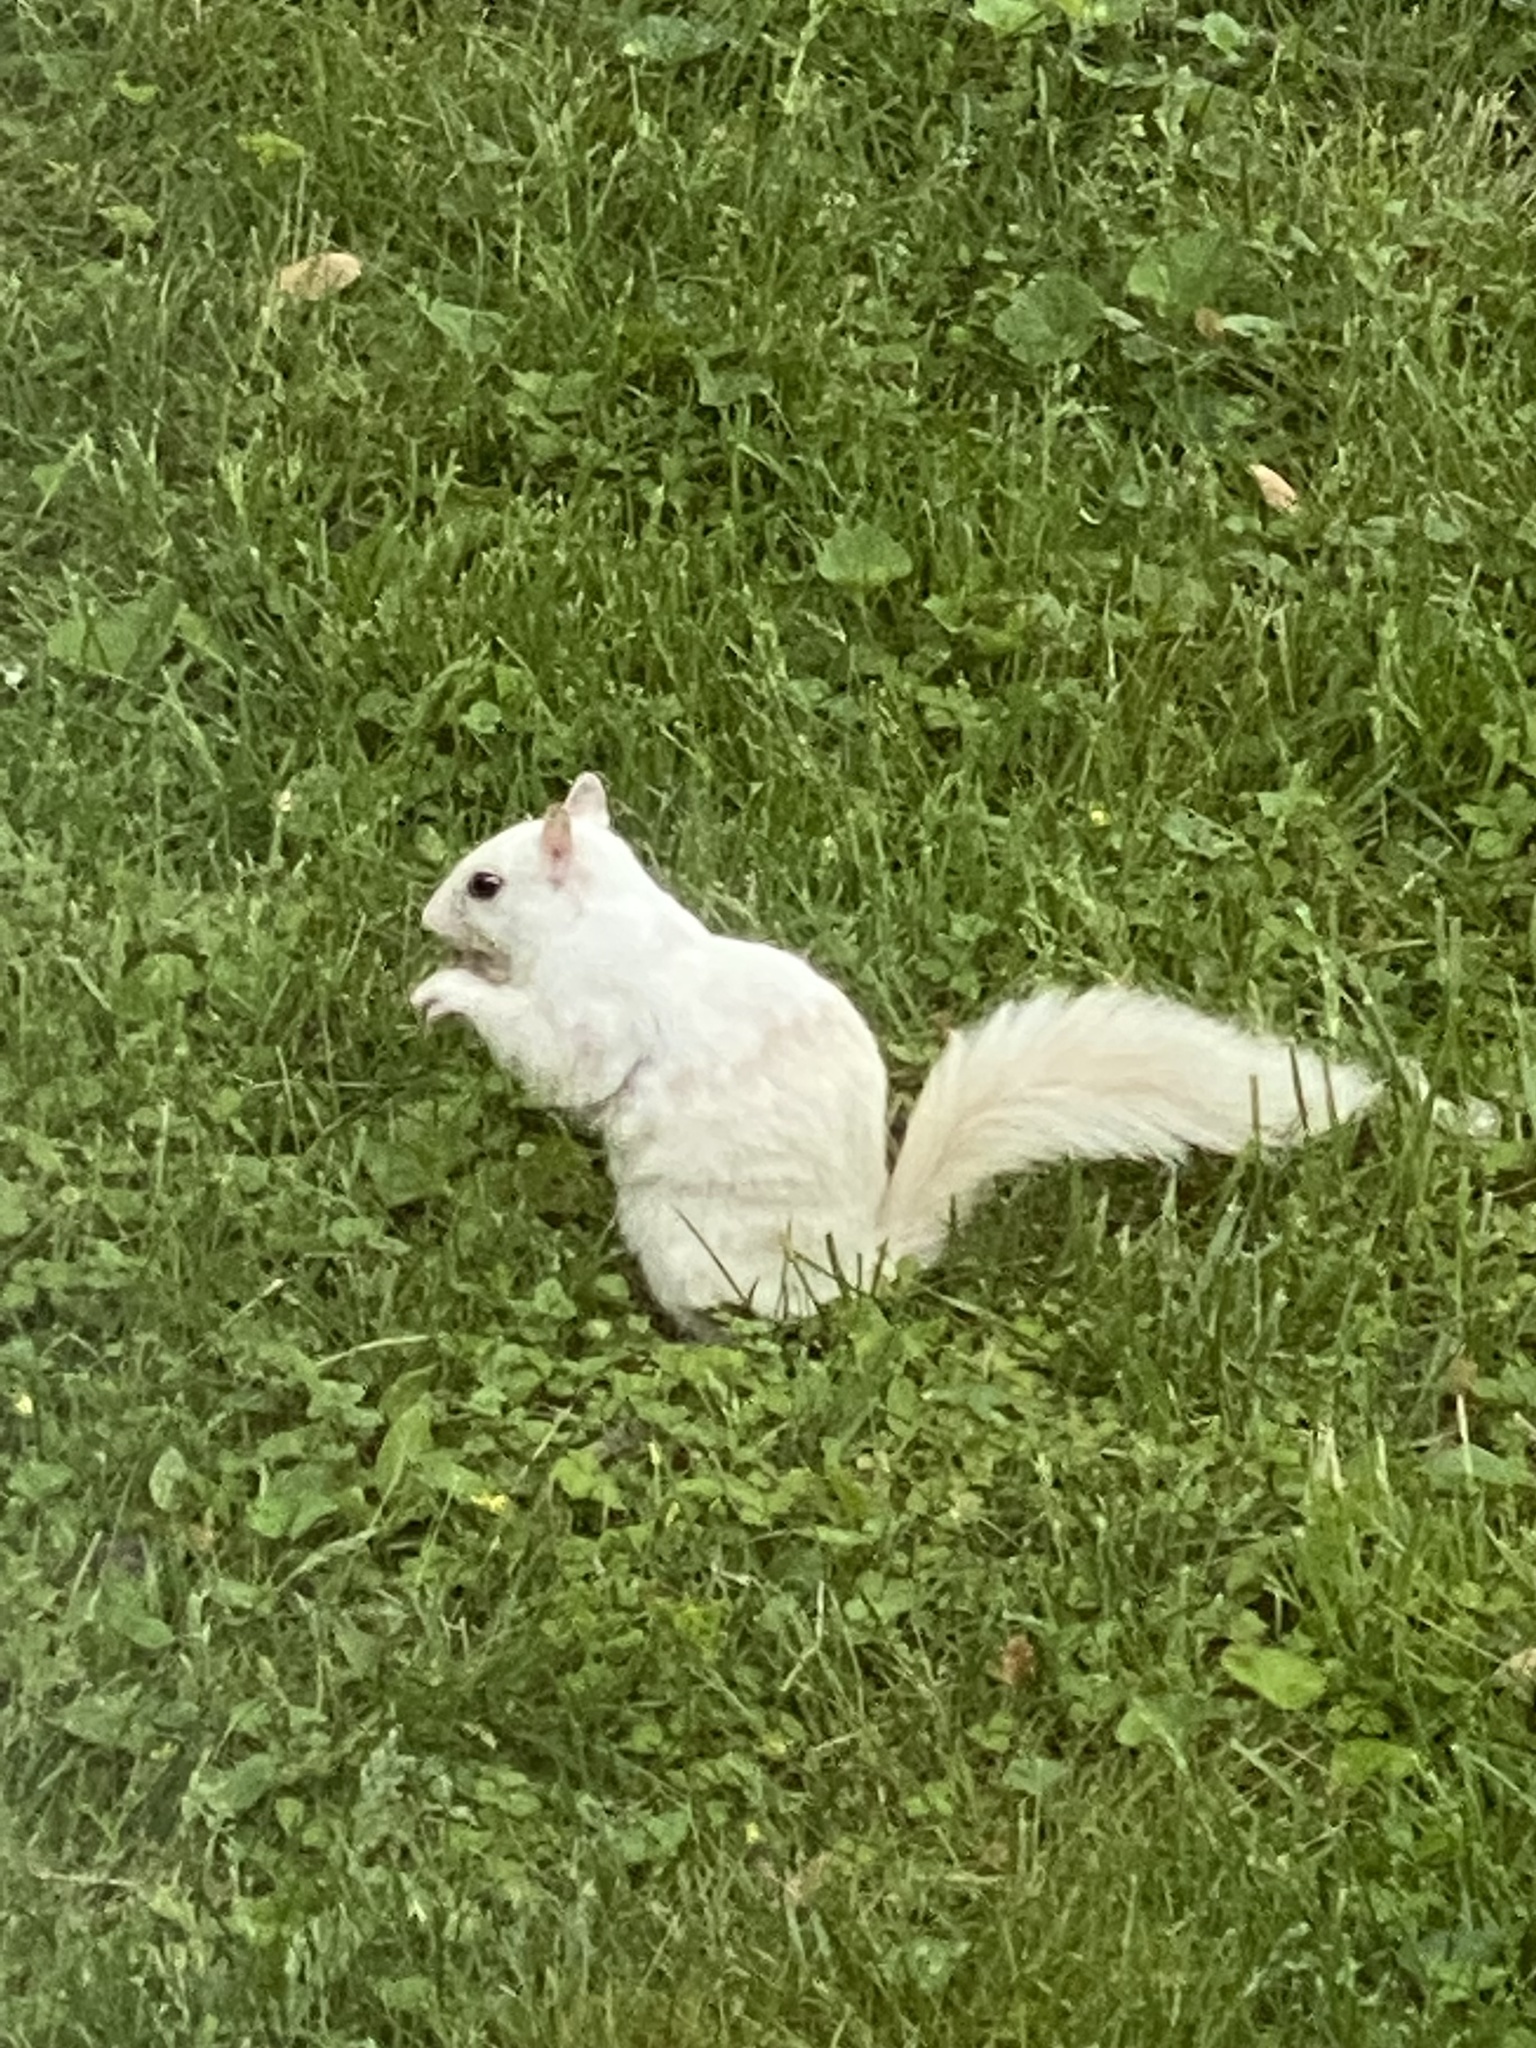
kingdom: Animalia
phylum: Chordata
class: Mammalia
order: Rodentia
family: Sciuridae
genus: Sciurus
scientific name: Sciurus carolinensis
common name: Eastern gray squirrel
